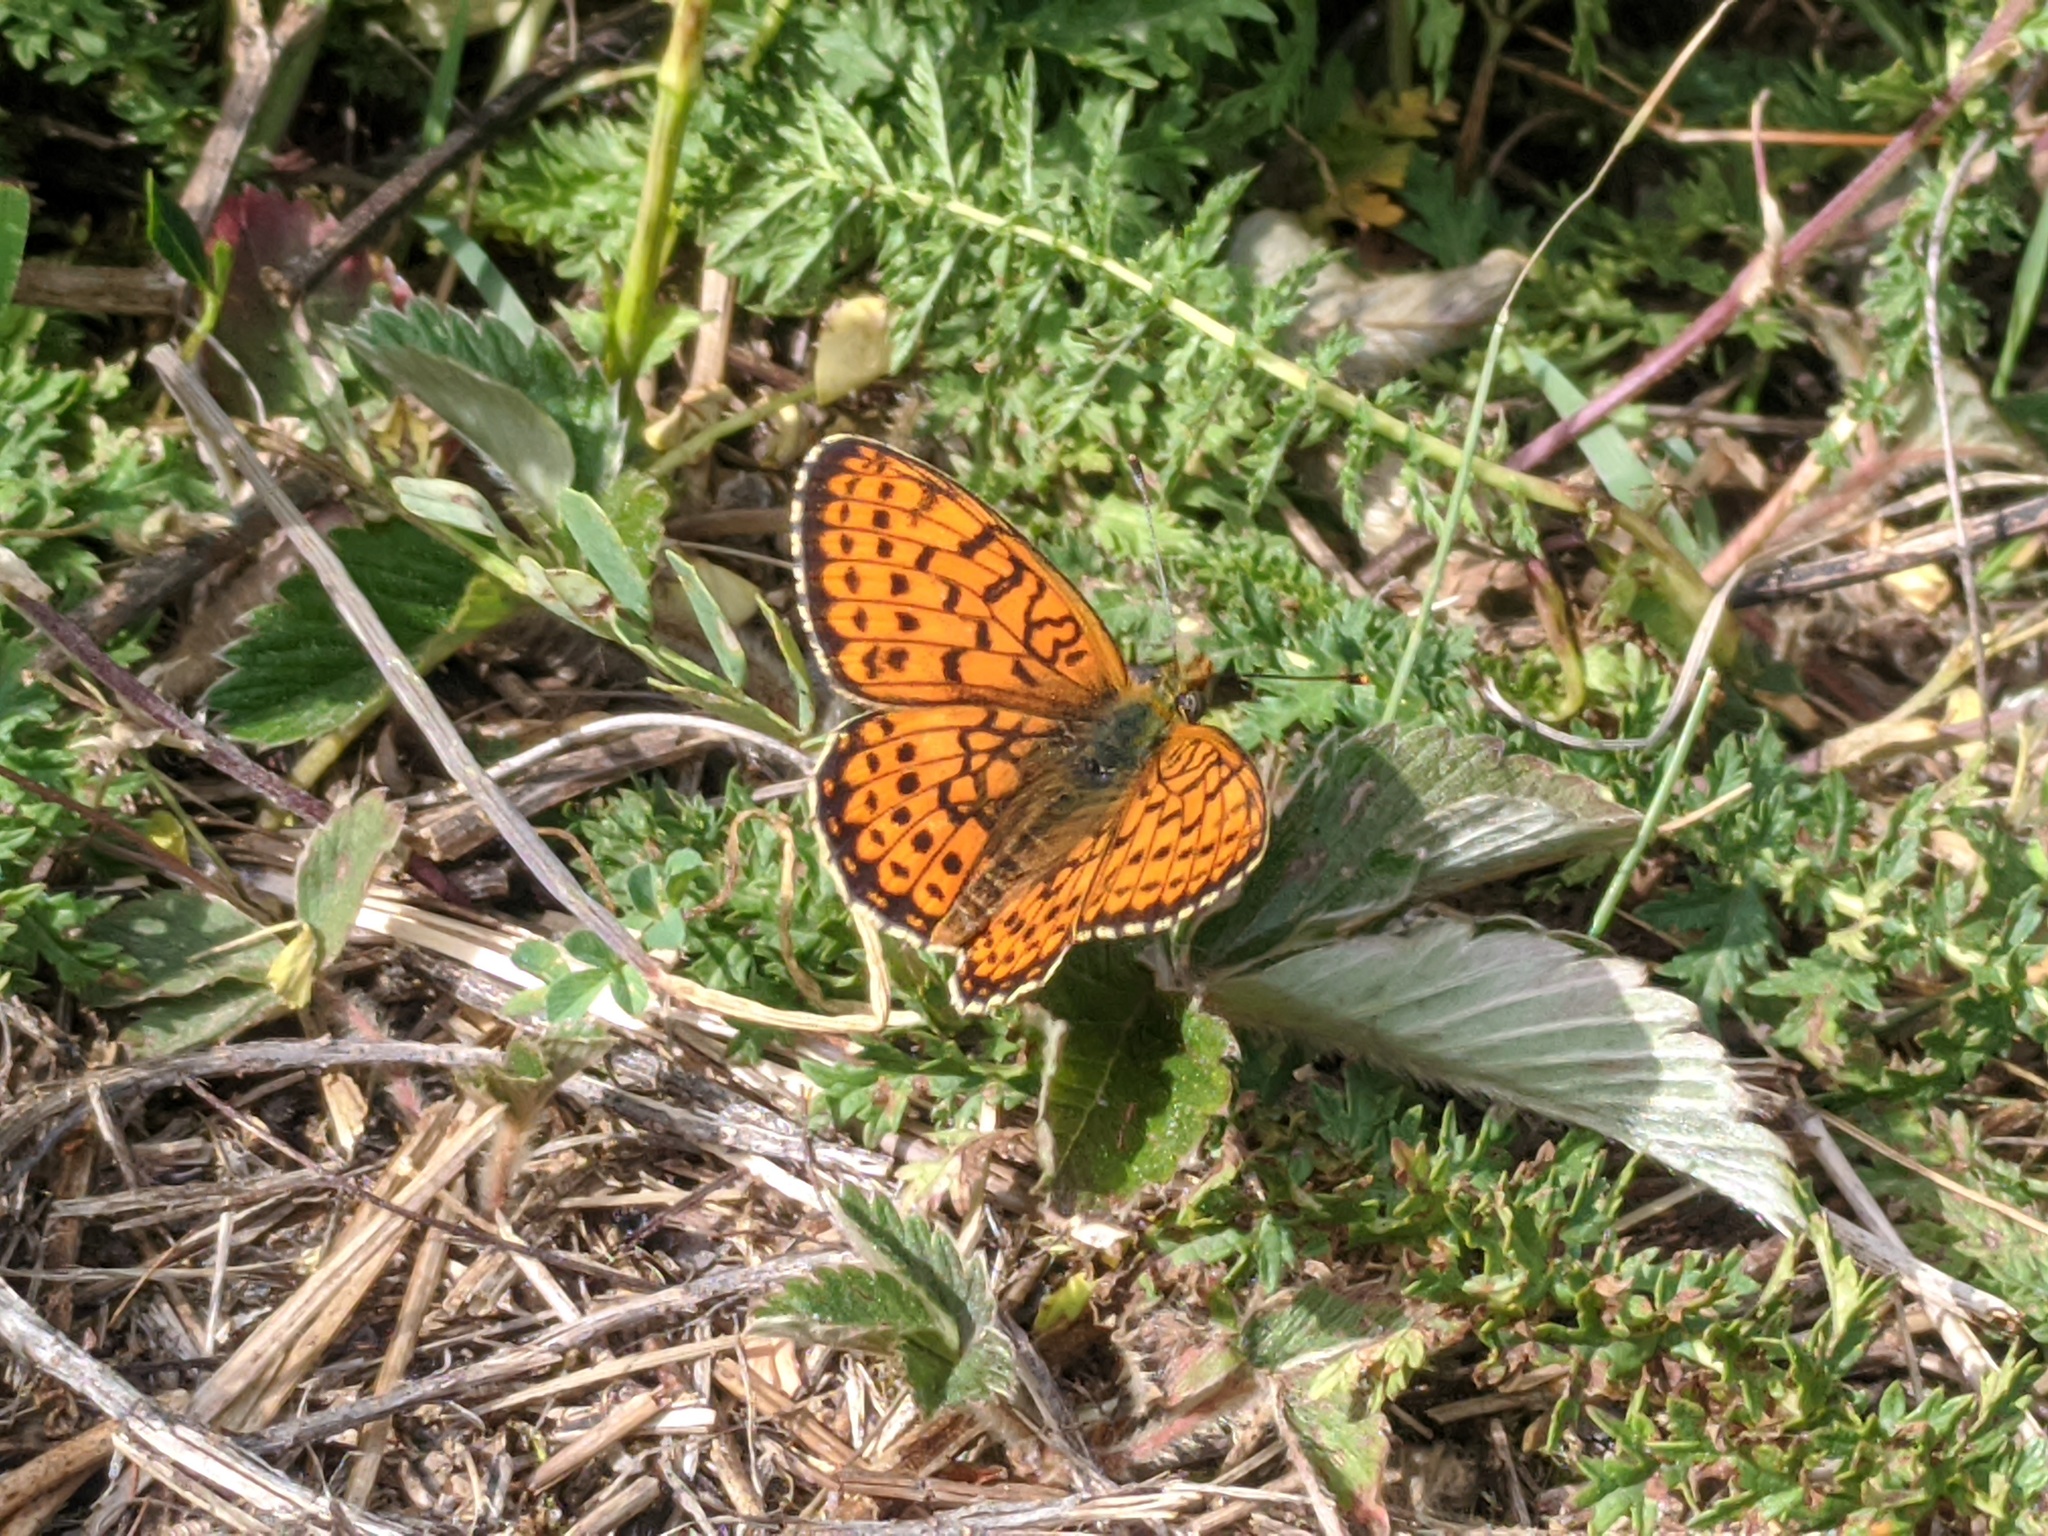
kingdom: Animalia
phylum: Arthropoda
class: Insecta
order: Lepidoptera
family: Nymphalidae
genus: Brenthis
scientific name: Brenthis hecate
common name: Twin-spot fritillary
